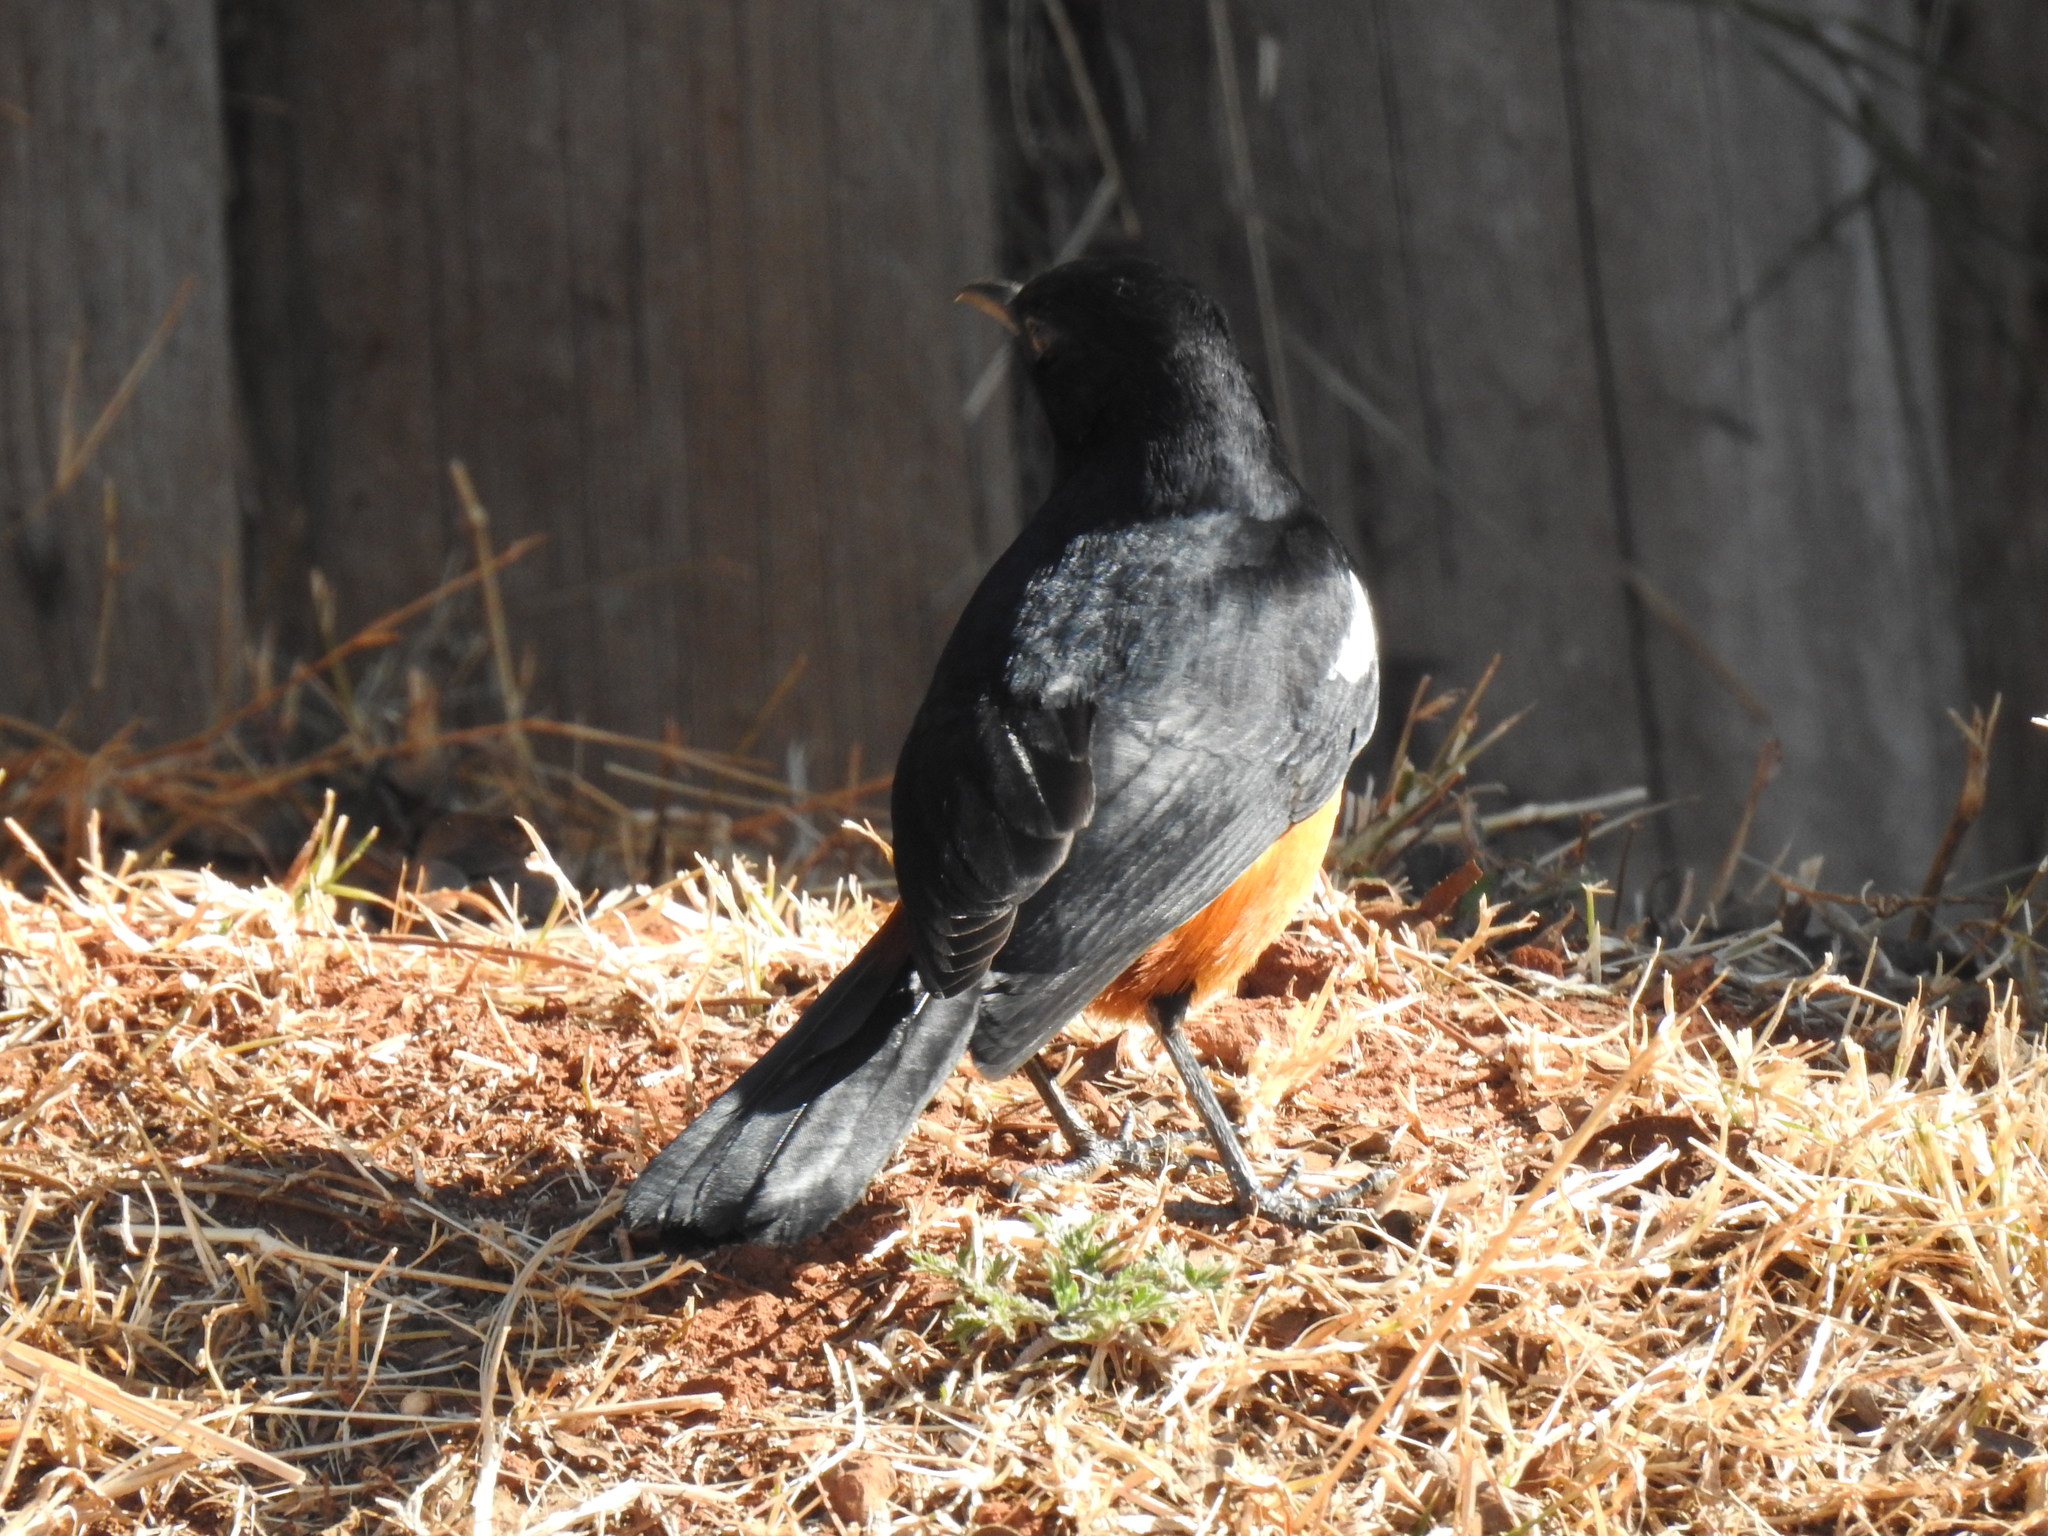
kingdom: Animalia
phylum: Chordata
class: Aves
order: Passeriformes
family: Muscicapidae
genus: Thamnolaea
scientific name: Thamnolaea cinnamomeiventris
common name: Mocking cliff chat
